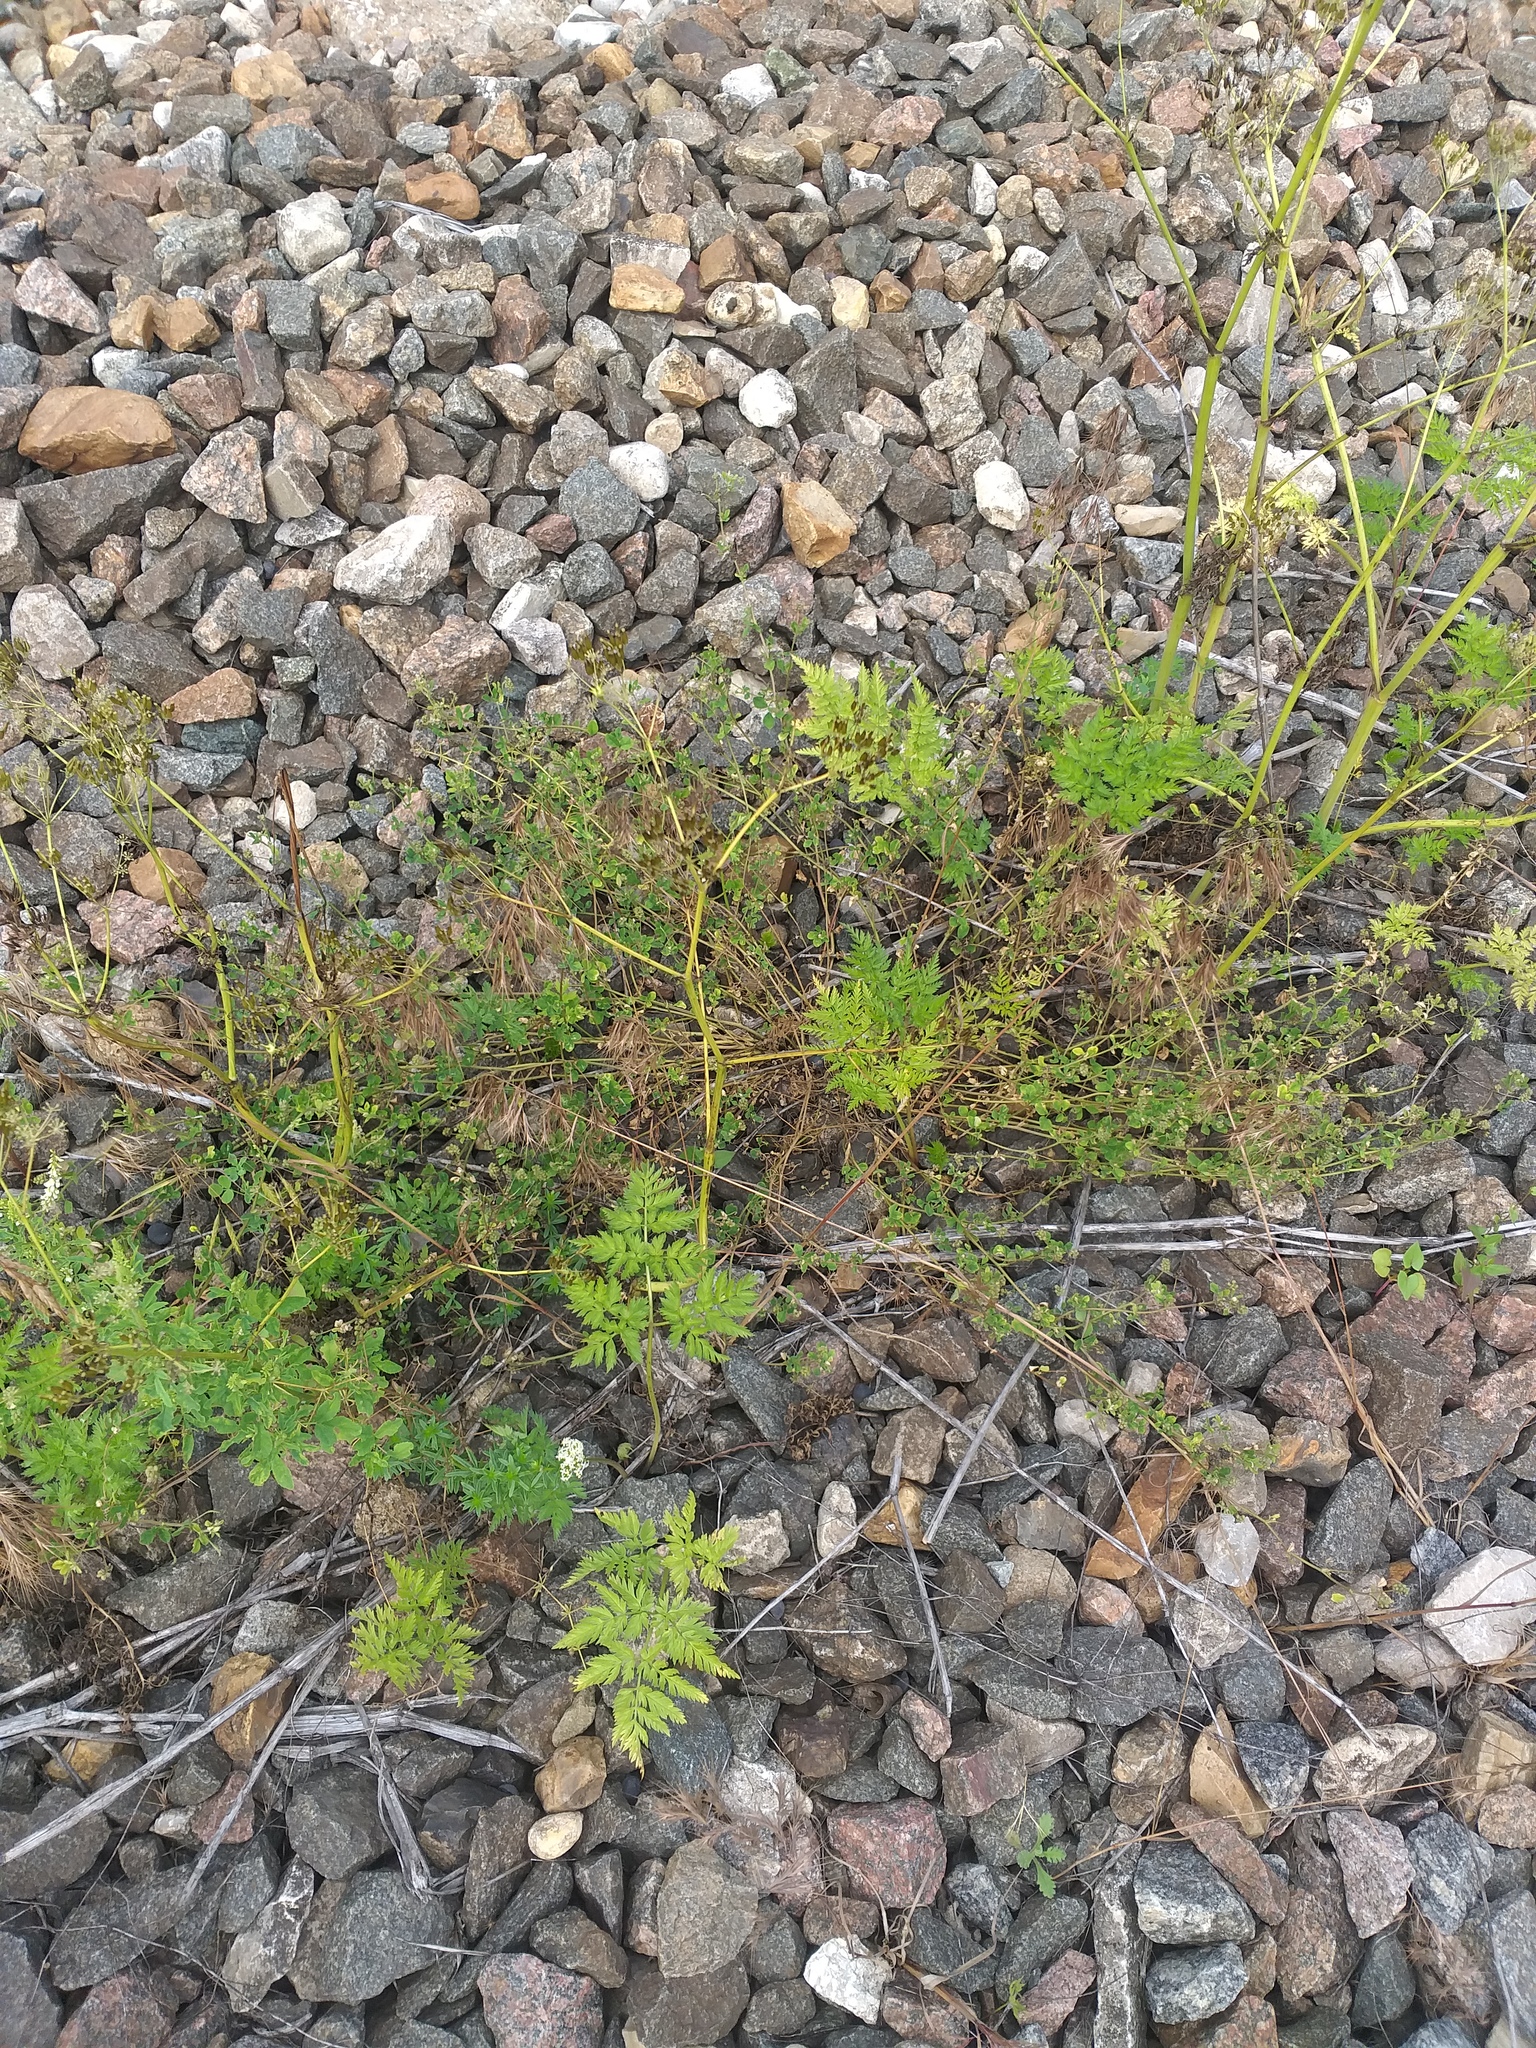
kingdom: Plantae
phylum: Tracheophyta
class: Magnoliopsida
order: Apiales
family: Apiaceae
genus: Anthriscus
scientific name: Anthriscus sylvestris
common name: Cow parsley
